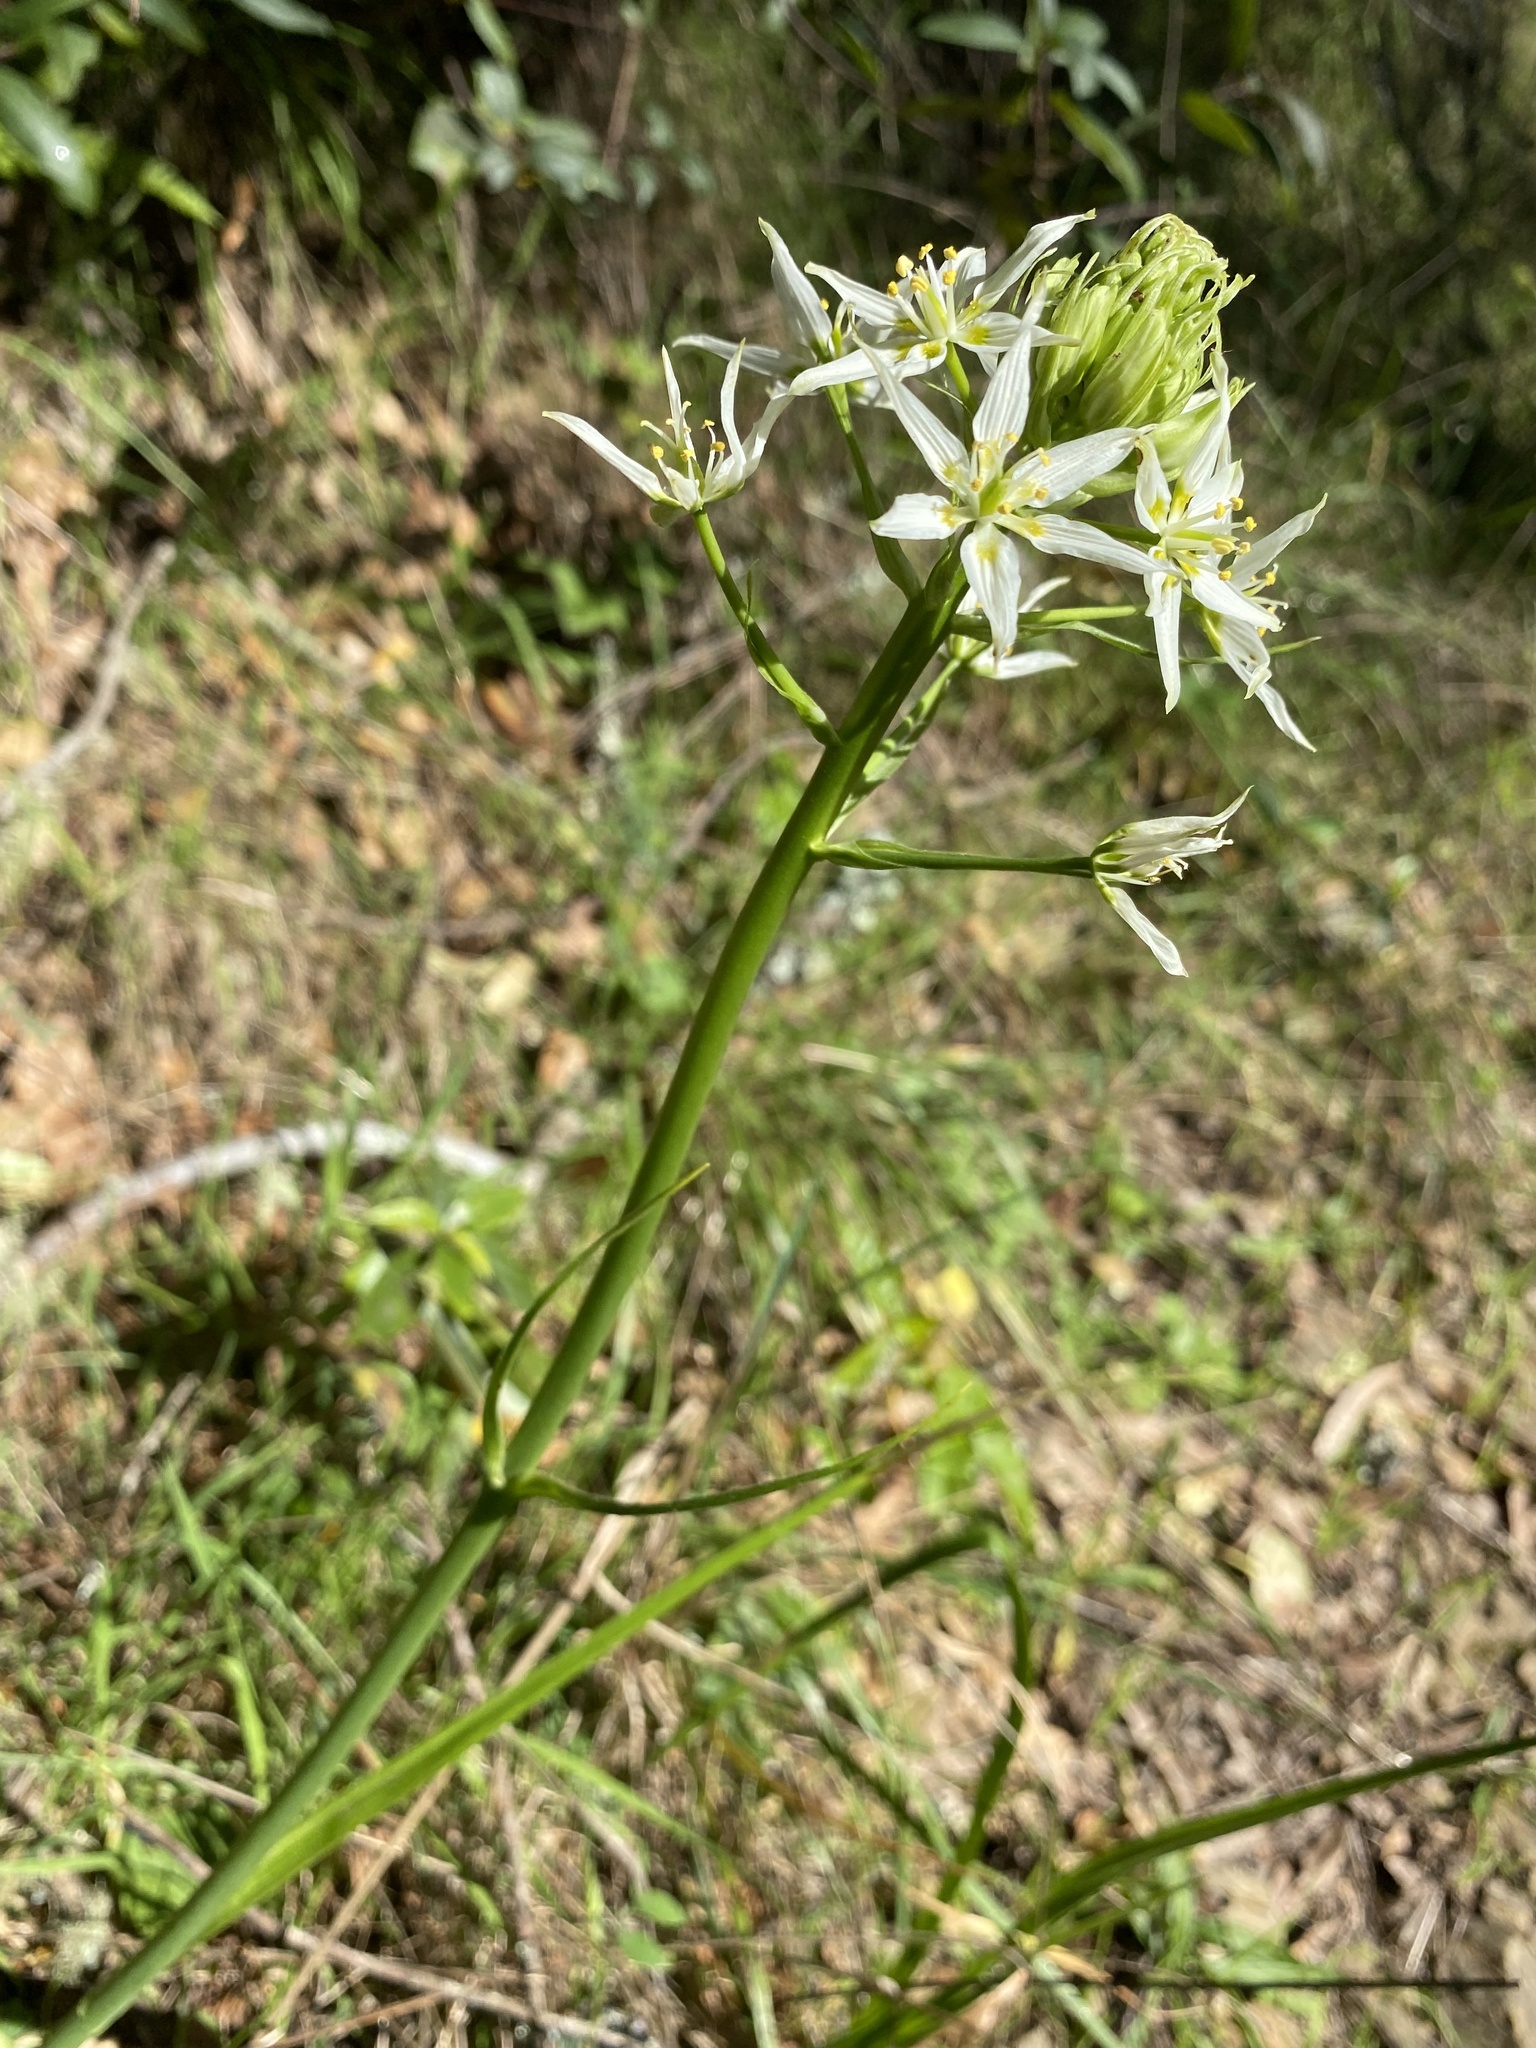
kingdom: Plantae
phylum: Tracheophyta
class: Liliopsida
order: Liliales
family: Melanthiaceae
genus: Toxicoscordion
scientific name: Toxicoscordion fremontii
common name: Fremont's death camas
